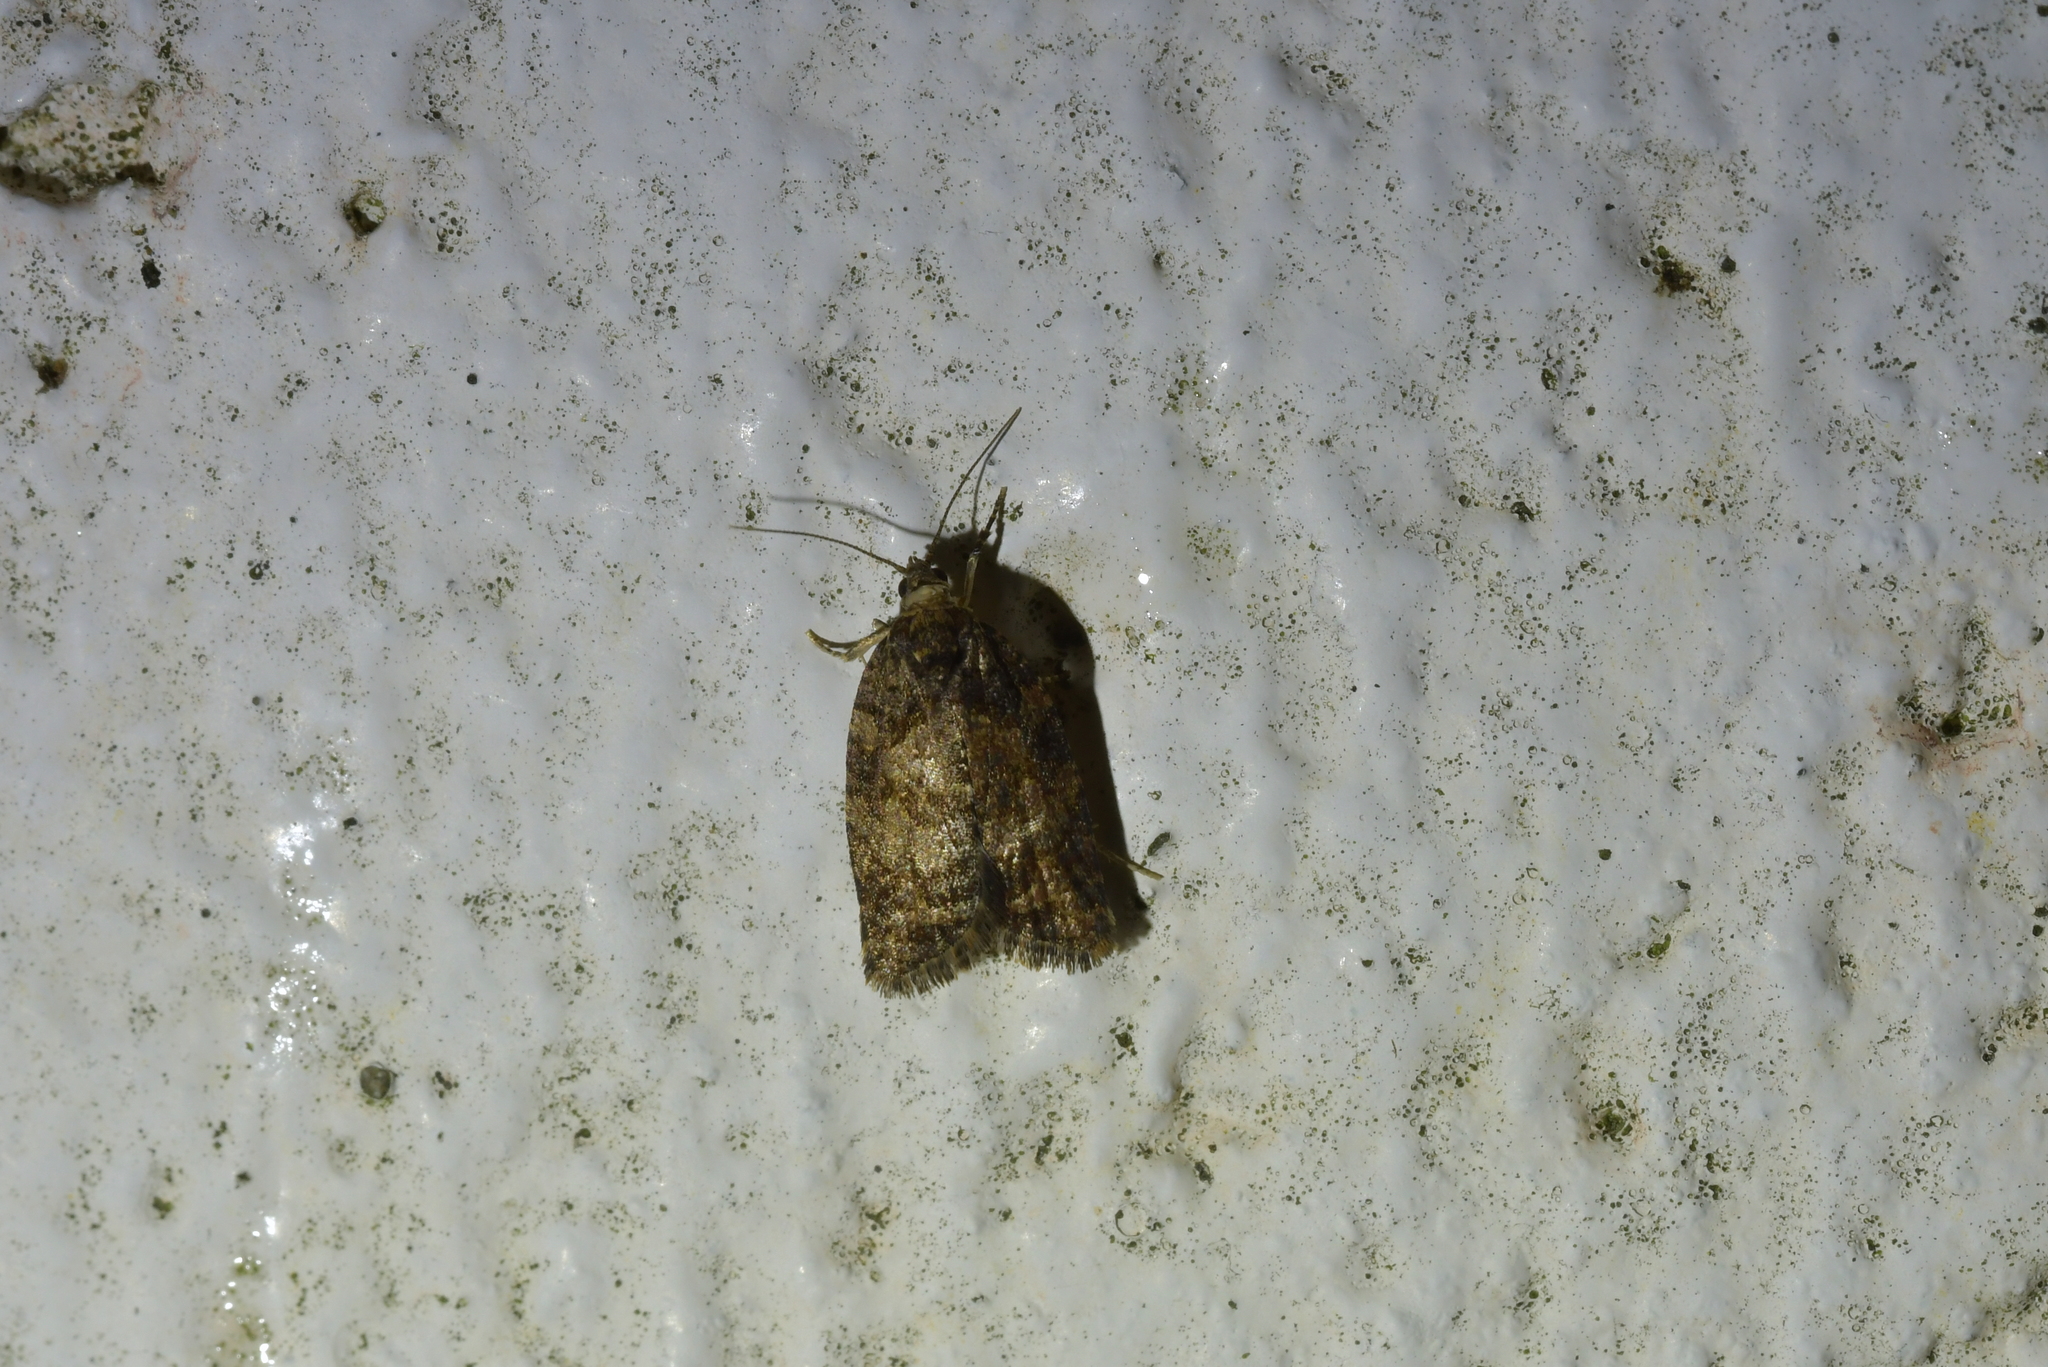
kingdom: Animalia
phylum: Arthropoda
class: Insecta
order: Lepidoptera
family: Tortricidae
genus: Capua
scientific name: Capua intractana
